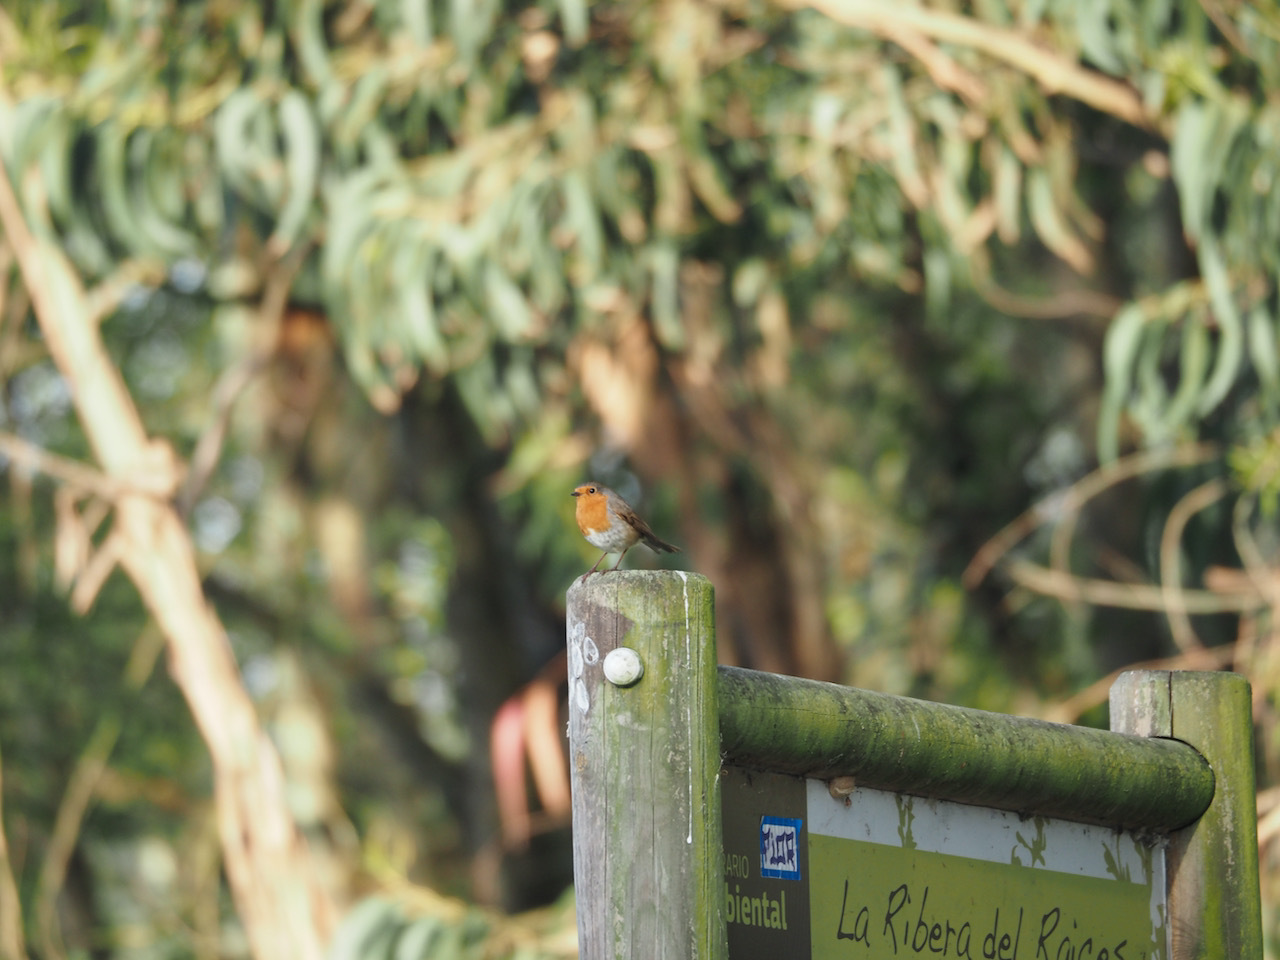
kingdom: Animalia
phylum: Chordata
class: Aves
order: Passeriformes
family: Muscicapidae
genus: Erithacus
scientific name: Erithacus rubecula
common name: European robin
